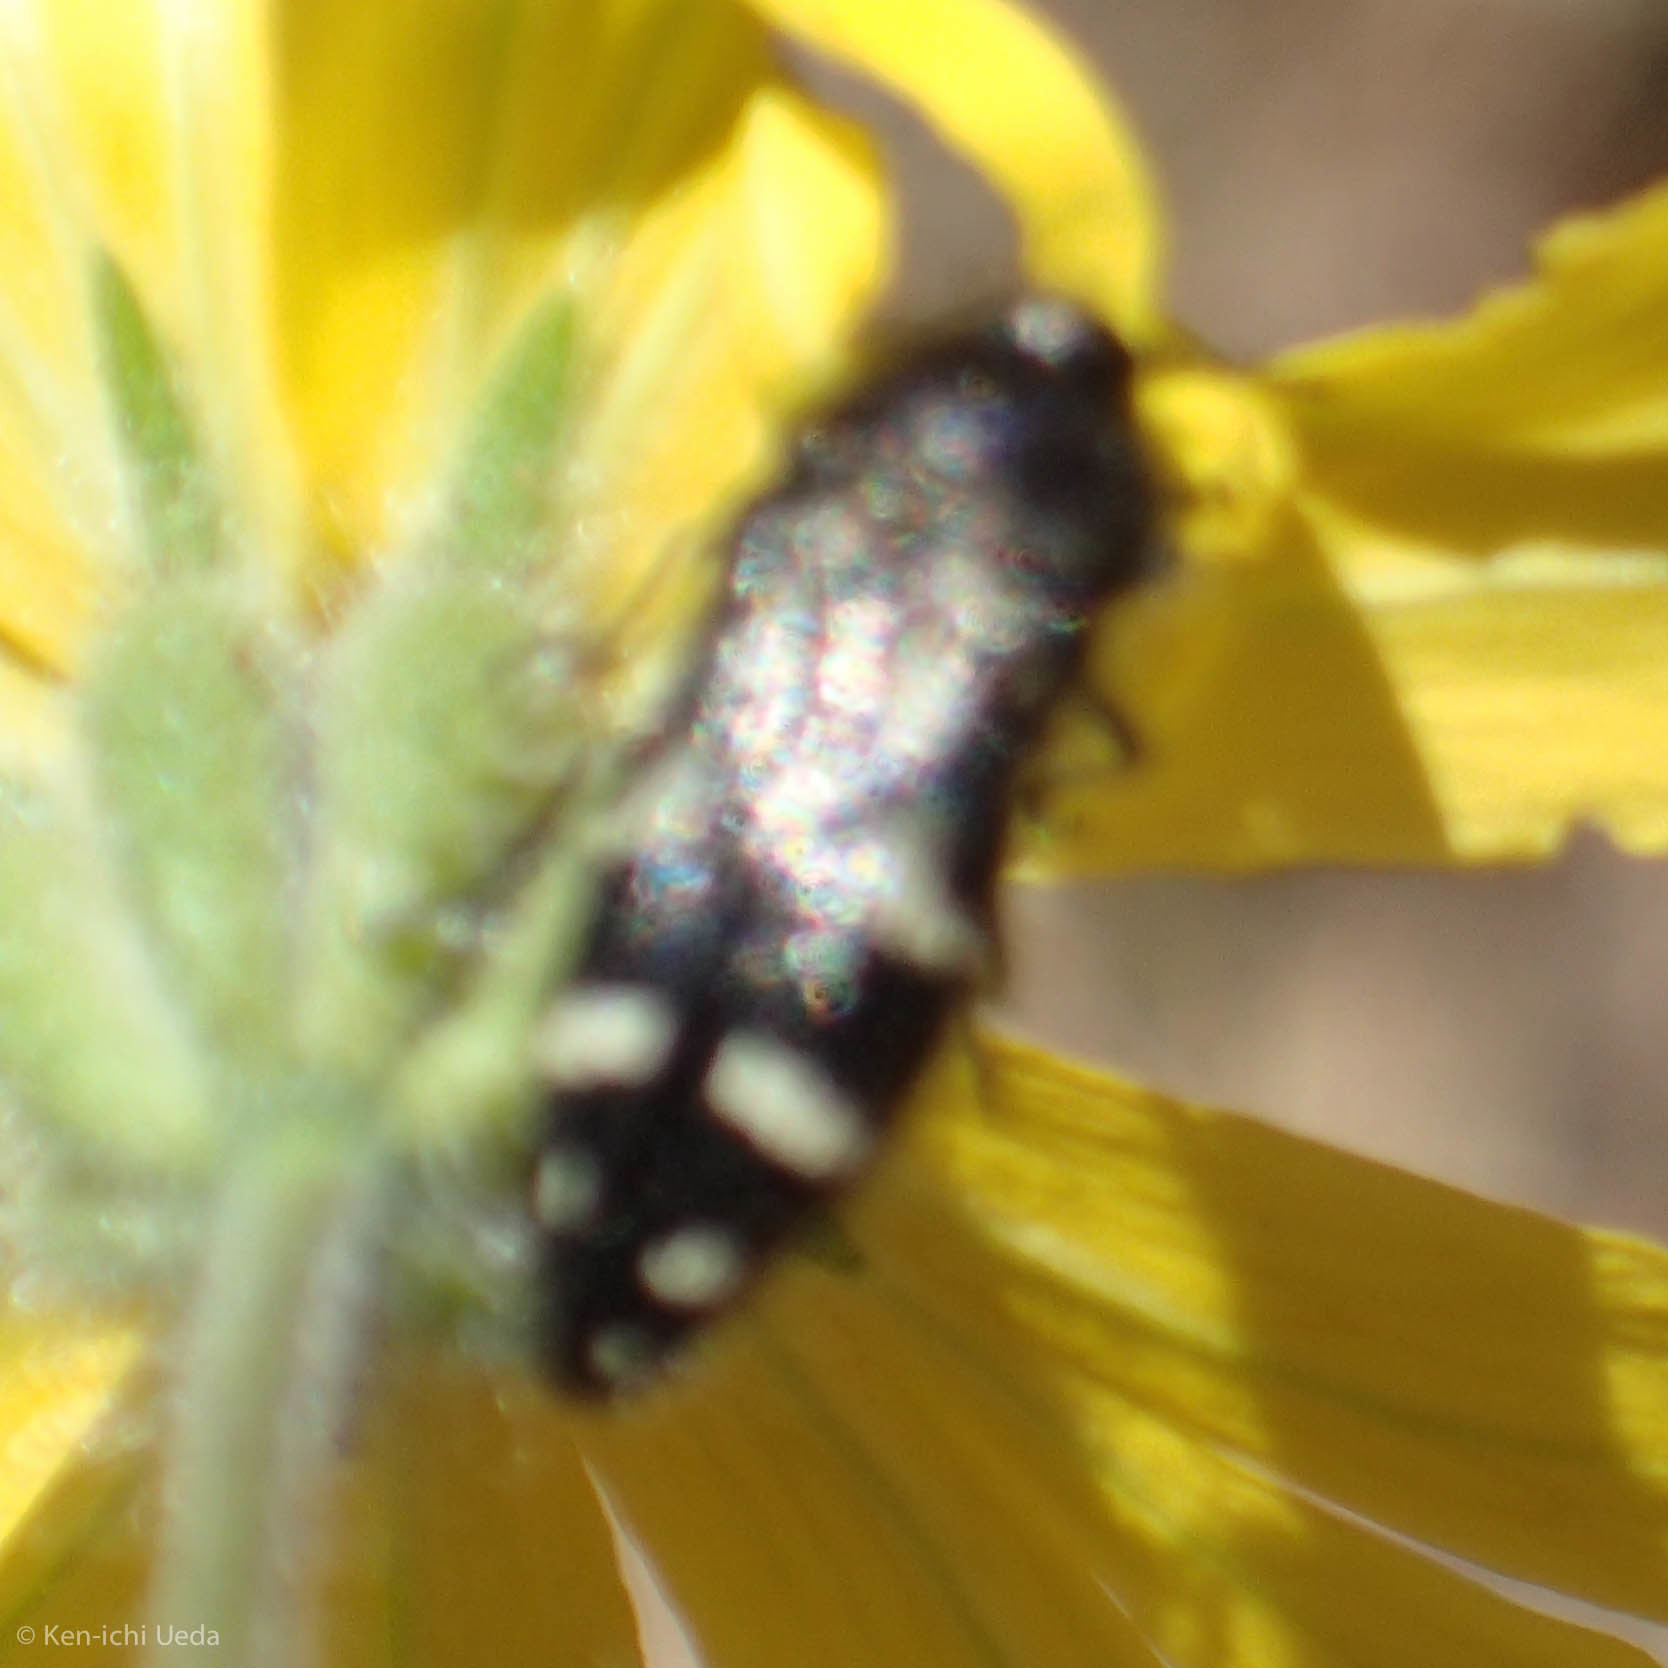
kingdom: Animalia
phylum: Arthropoda
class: Insecta
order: Coleoptera
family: Buprestidae
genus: Acmaeodera
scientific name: Acmaeodera connexa
